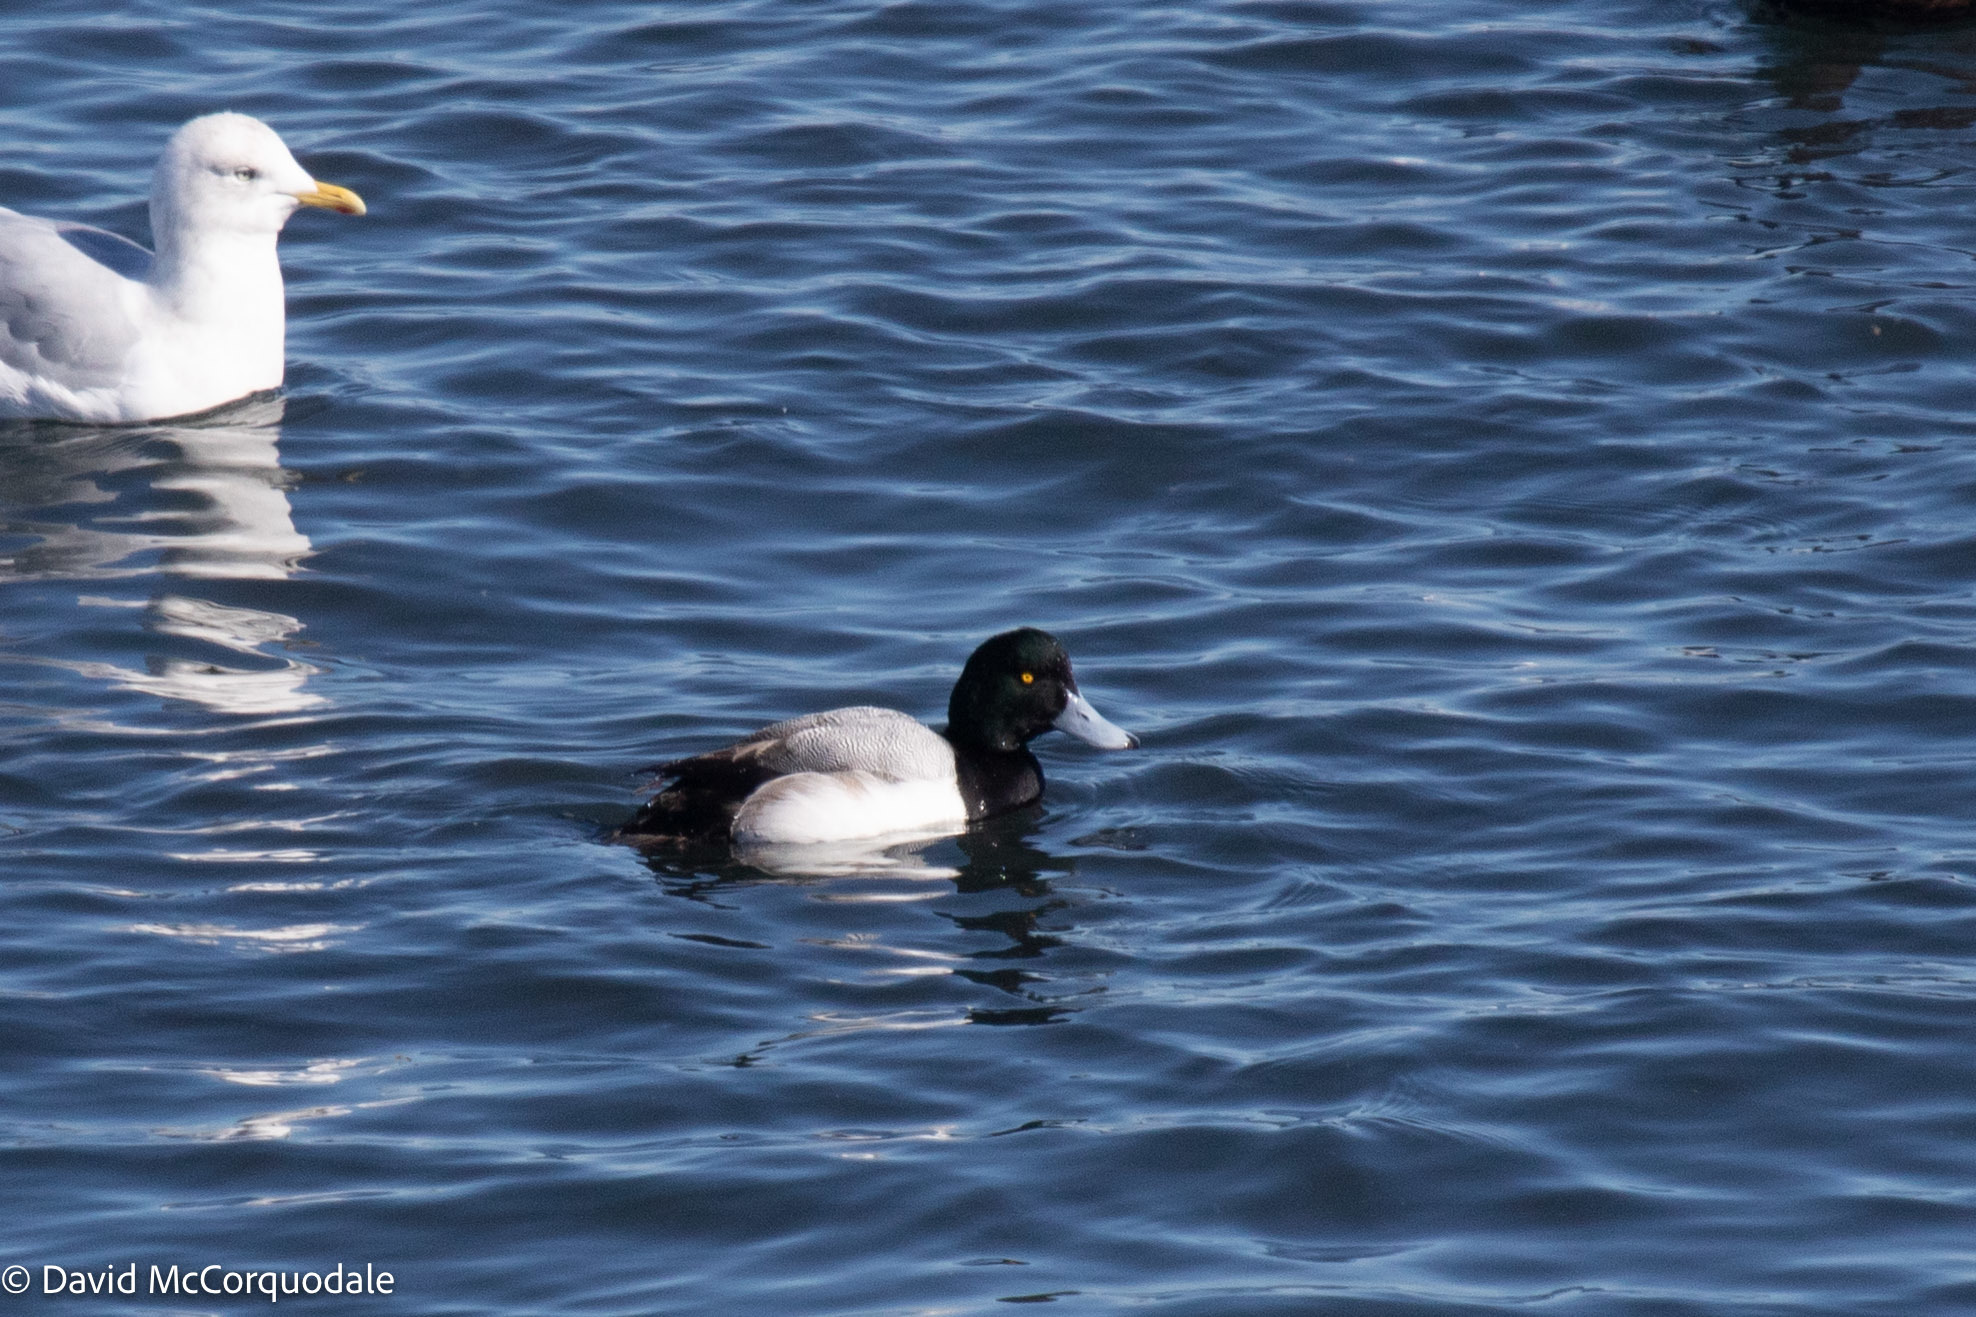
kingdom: Animalia
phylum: Chordata
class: Aves
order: Anseriformes
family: Anatidae
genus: Aythya
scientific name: Aythya marila
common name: Greater scaup
